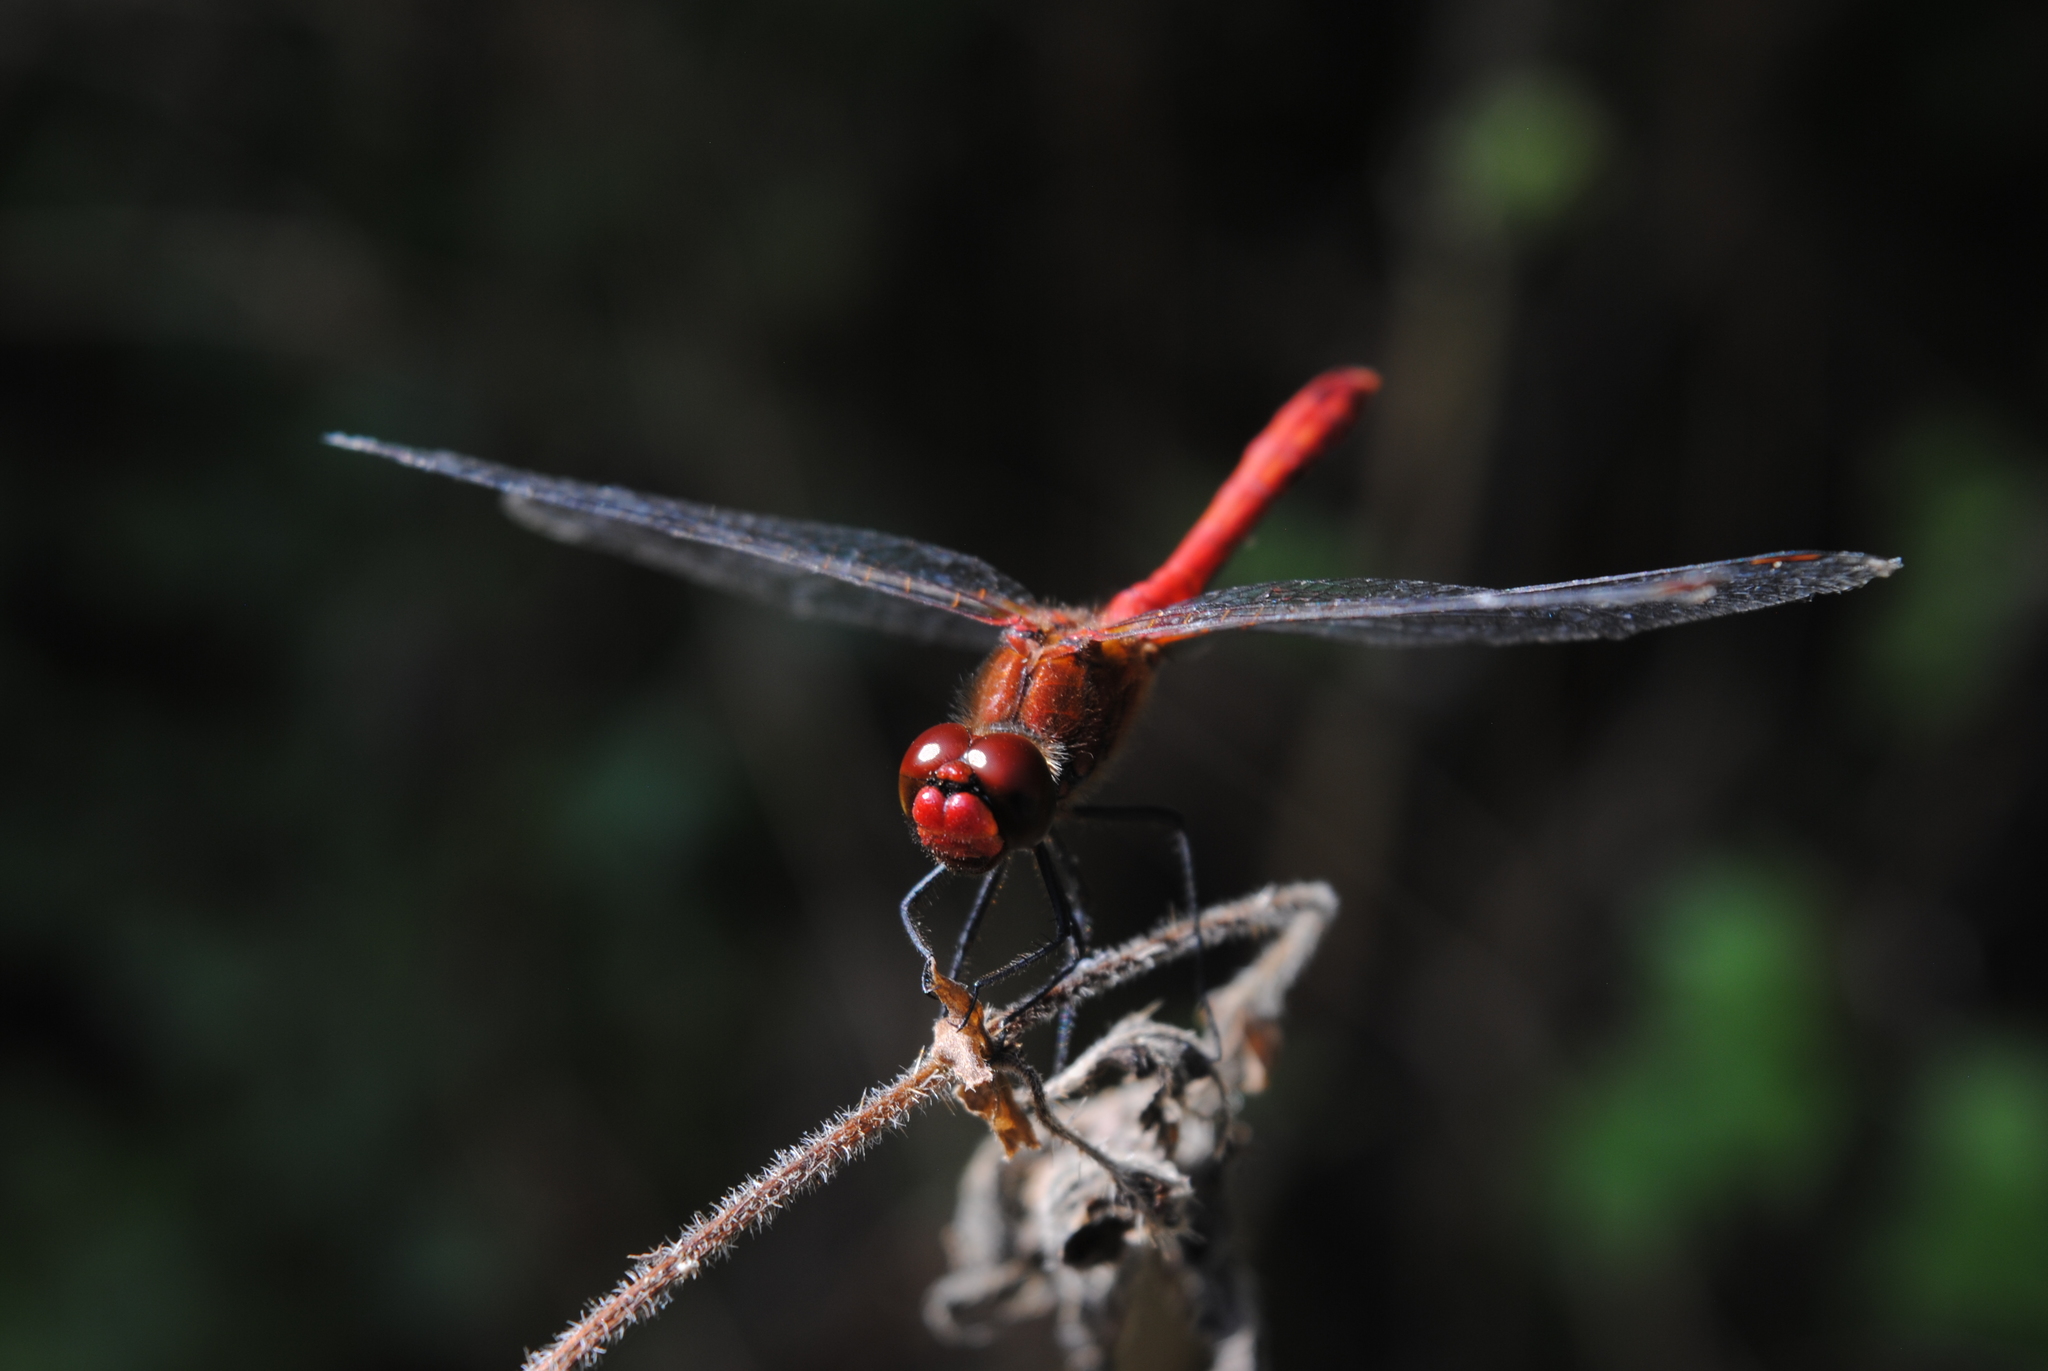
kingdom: Animalia
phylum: Arthropoda
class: Insecta
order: Odonata
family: Libellulidae
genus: Sympetrum
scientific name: Sympetrum sanguineum
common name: Ruddy darter
